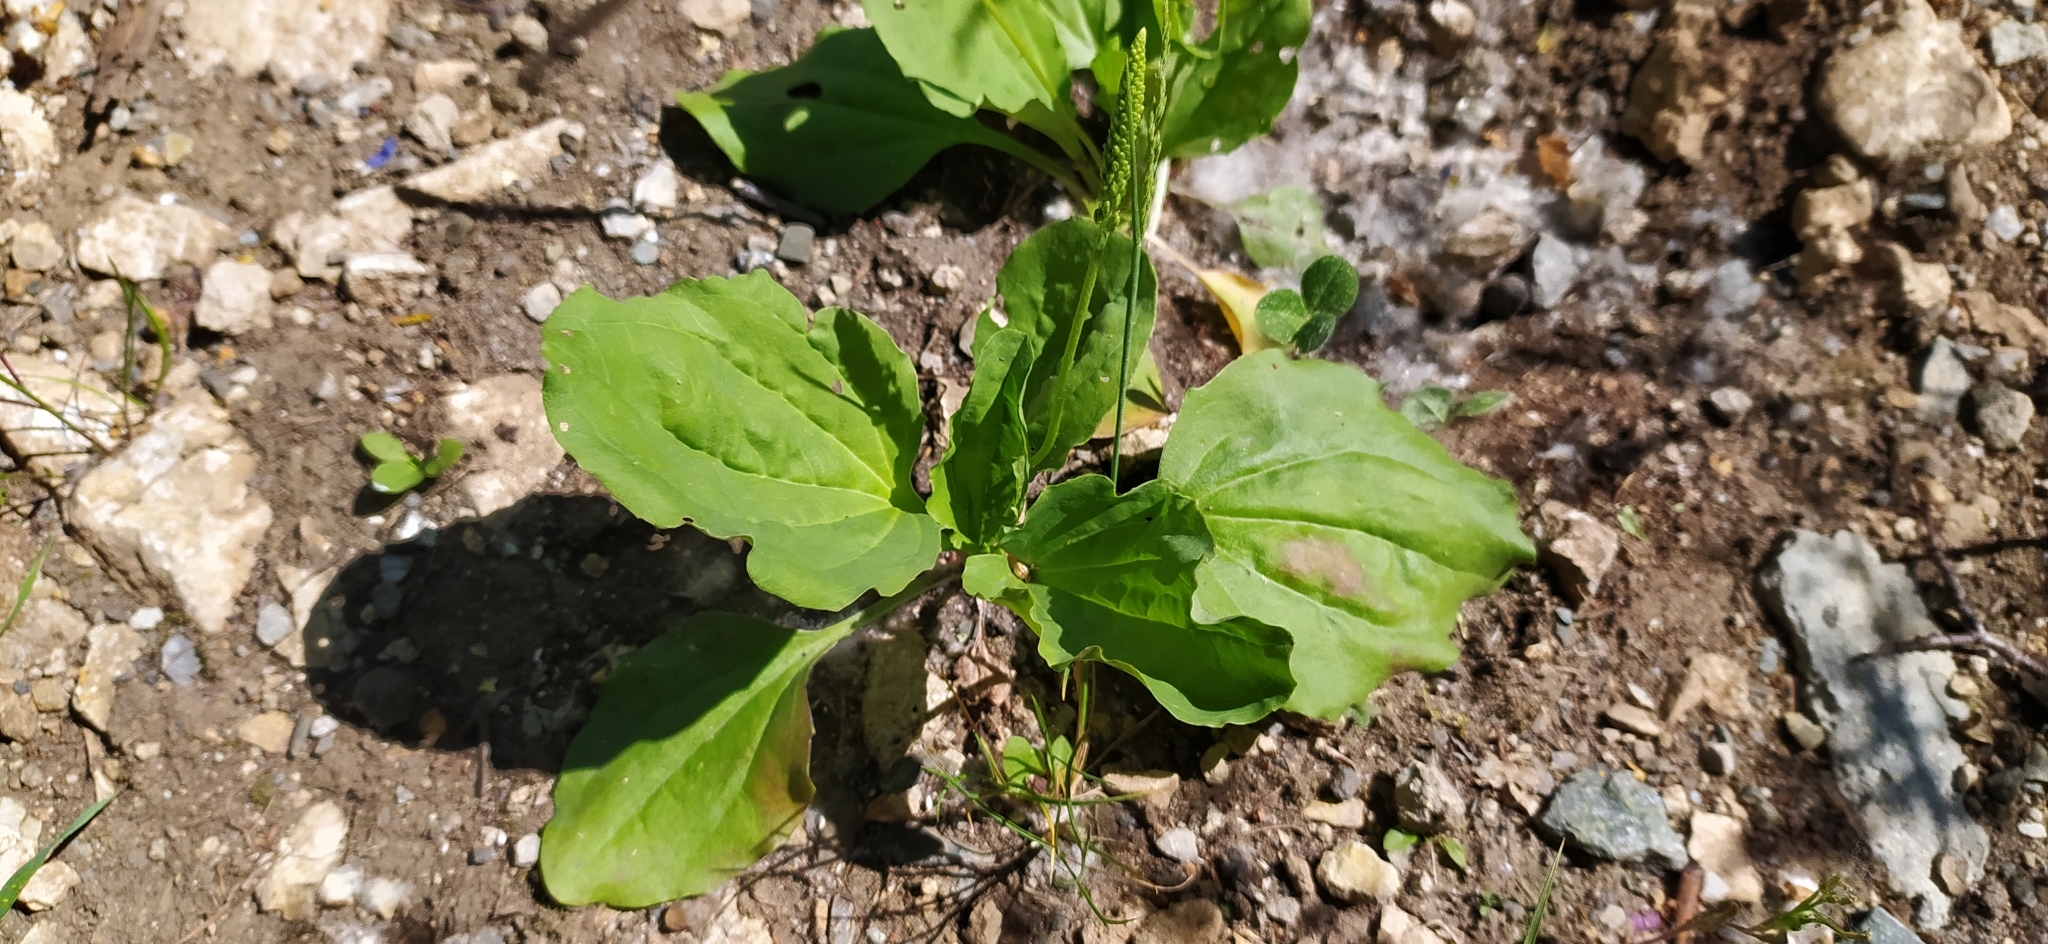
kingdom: Plantae
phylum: Tracheophyta
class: Magnoliopsida
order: Lamiales
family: Plantaginaceae
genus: Plantago
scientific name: Plantago major
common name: Common plantain
